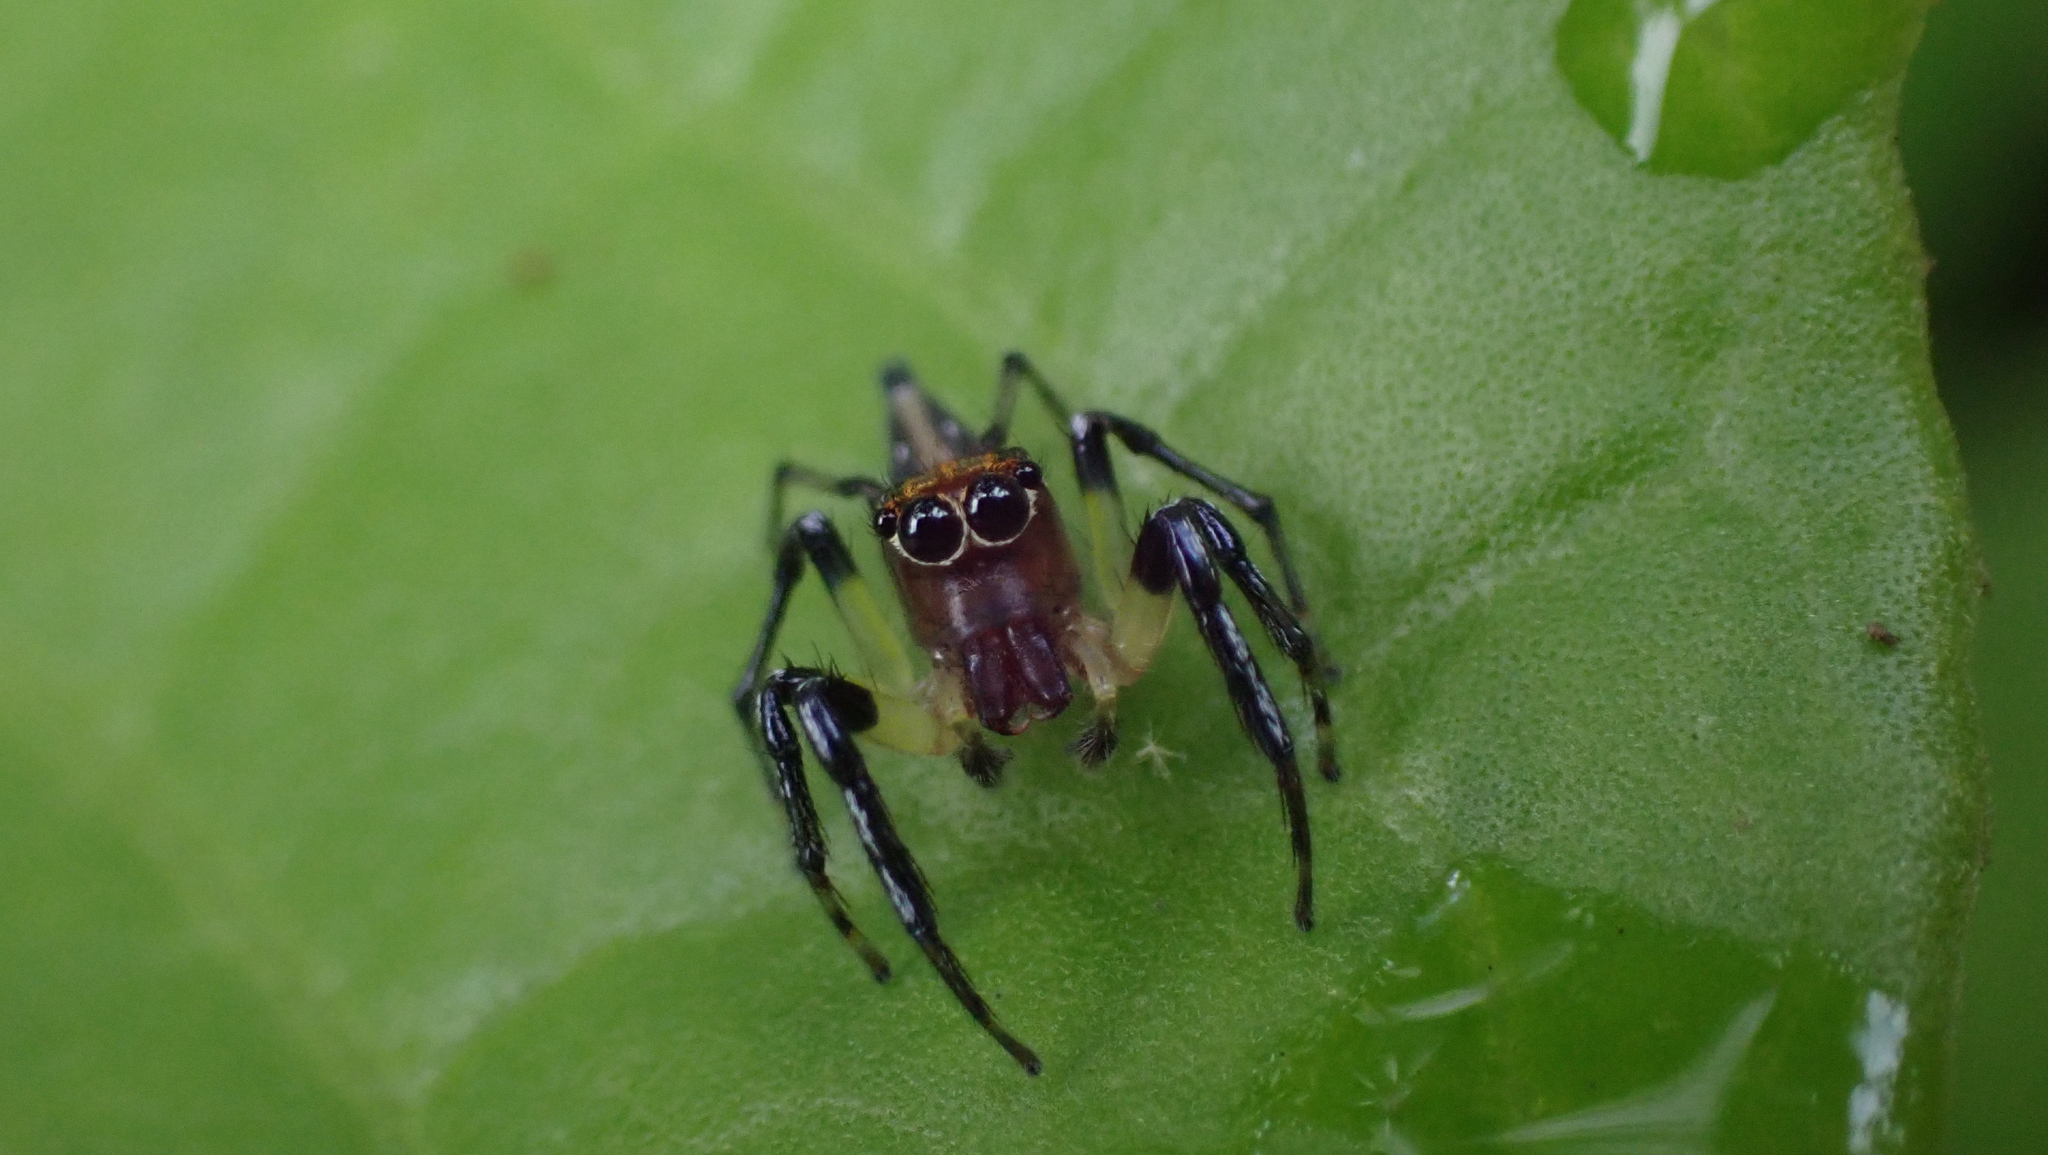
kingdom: Animalia
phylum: Arthropoda
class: Arachnida
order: Araneae
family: Salticidae
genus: Hypaeus
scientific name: Hypaeus benignus
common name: Jumping spiders
